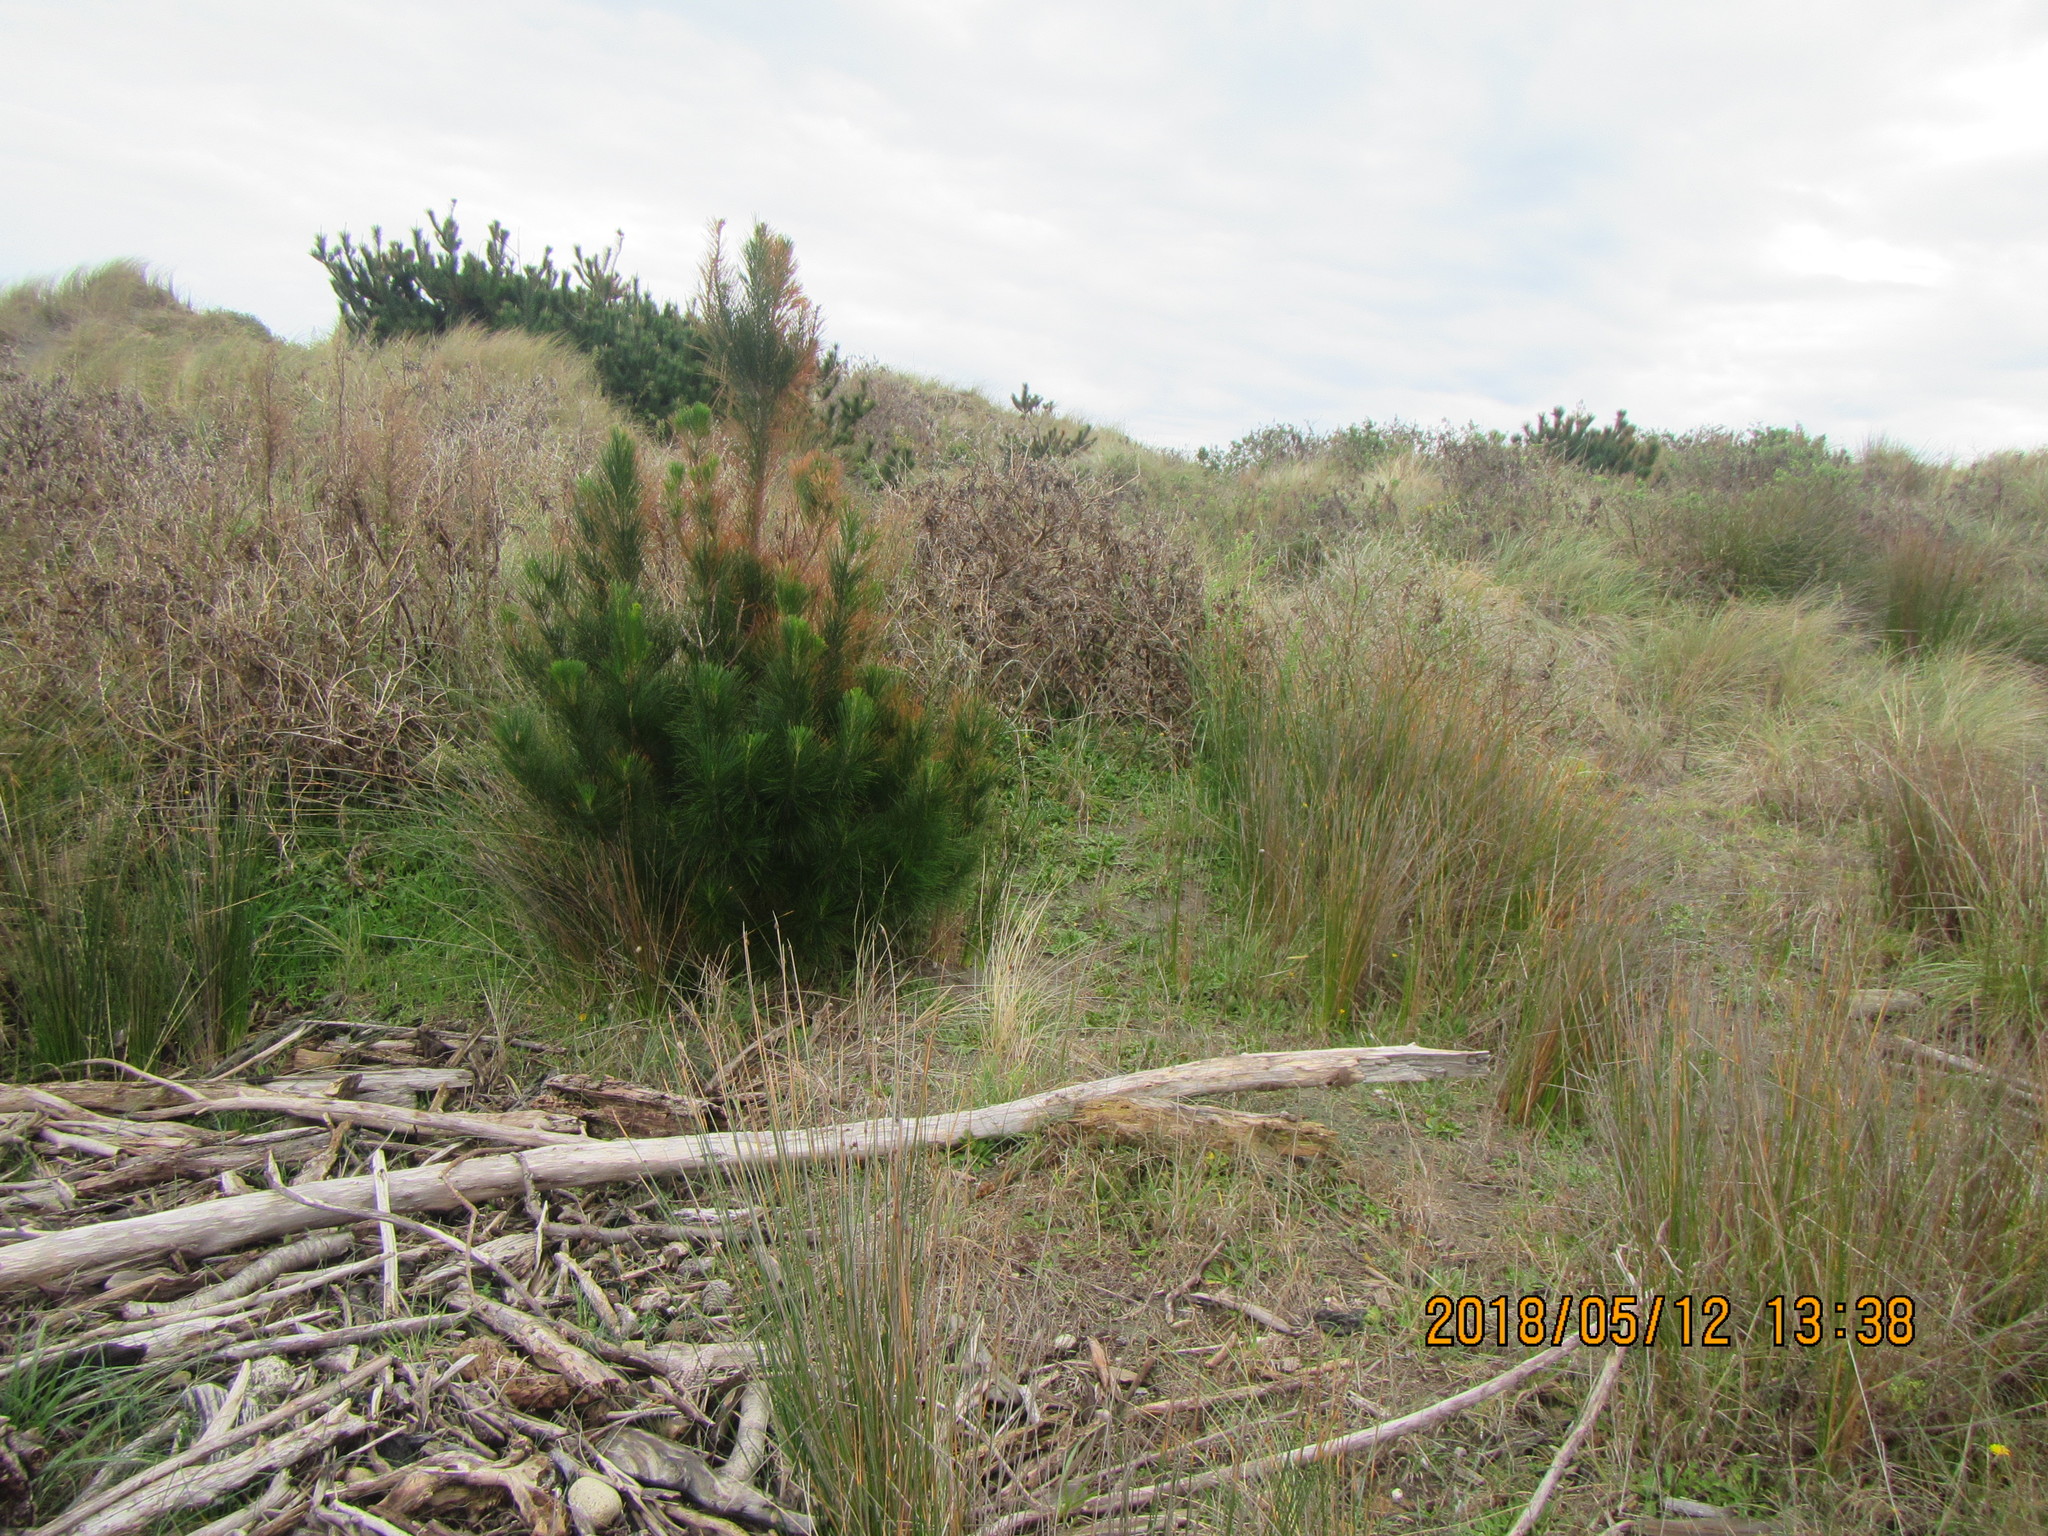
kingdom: Plantae
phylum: Tracheophyta
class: Pinopsida
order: Pinales
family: Pinaceae
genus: Pinus
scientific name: Pinus radiata
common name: Monterey pine
